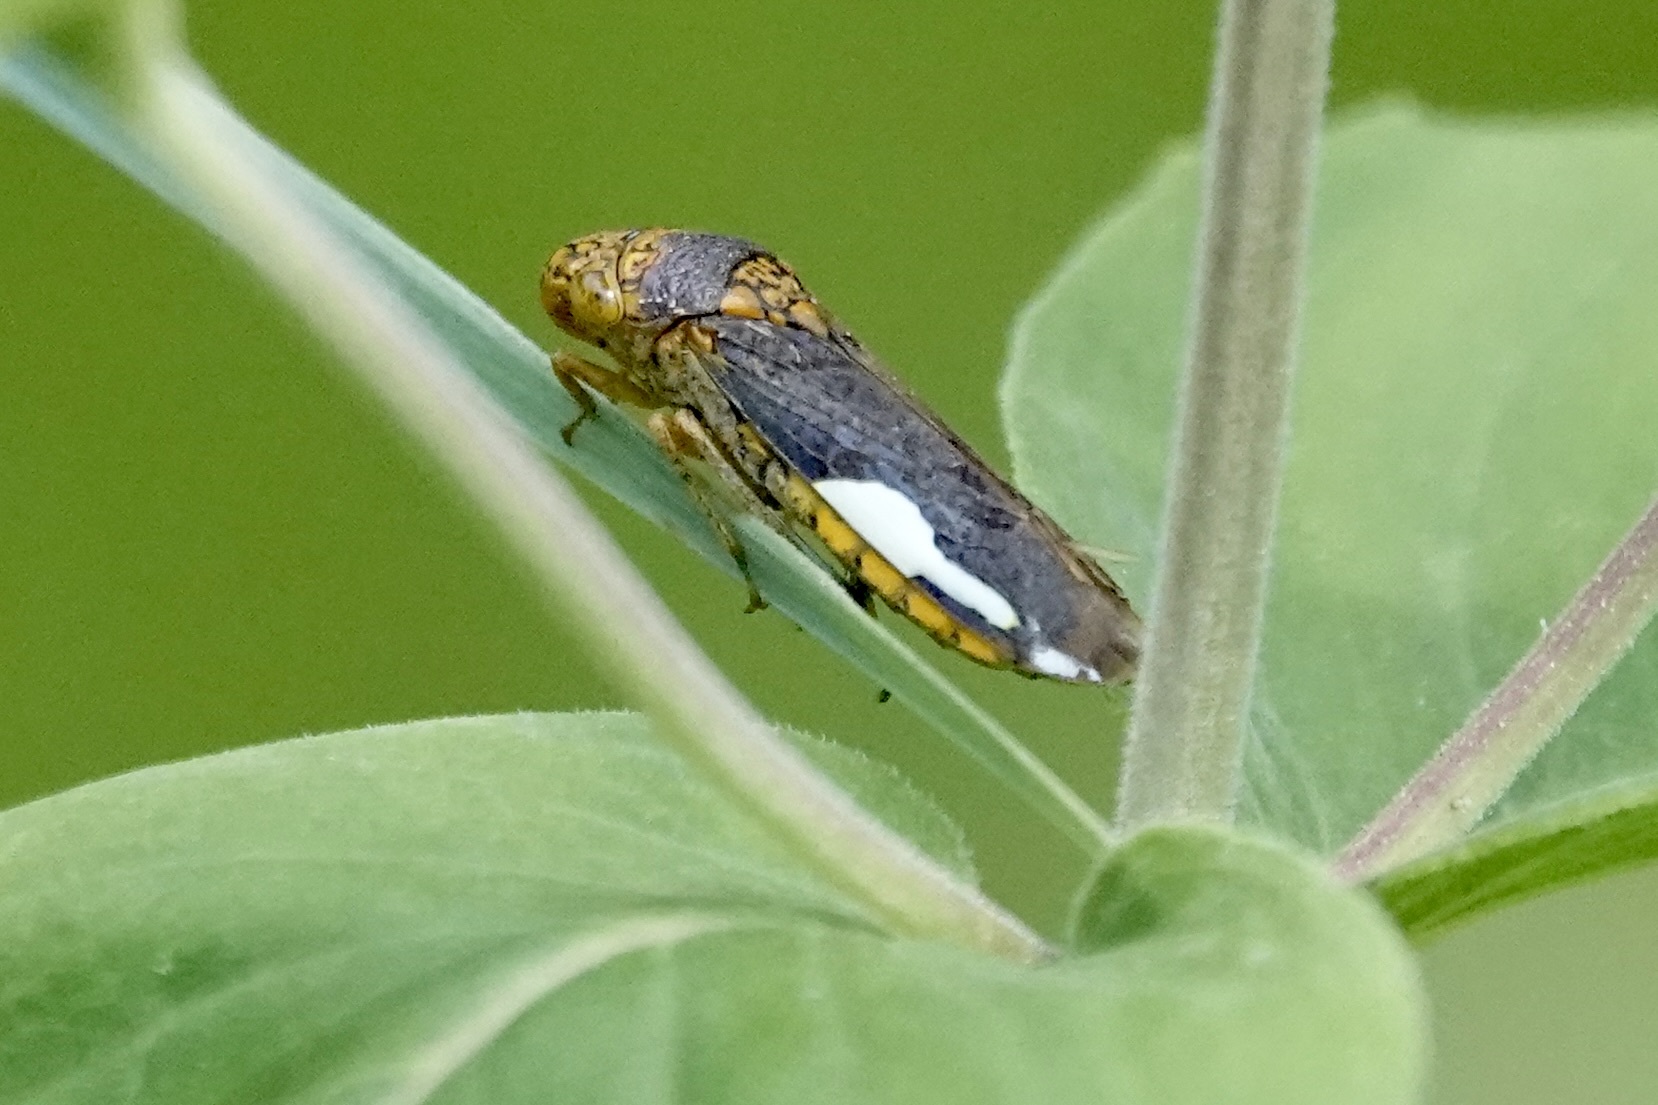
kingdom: Animalia
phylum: Arthropoda
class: Insecta
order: Hemiptera
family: Cicadellidae
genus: Oncometopia
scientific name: Oncometopia orbona
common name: Broad-headed sharpshooter
